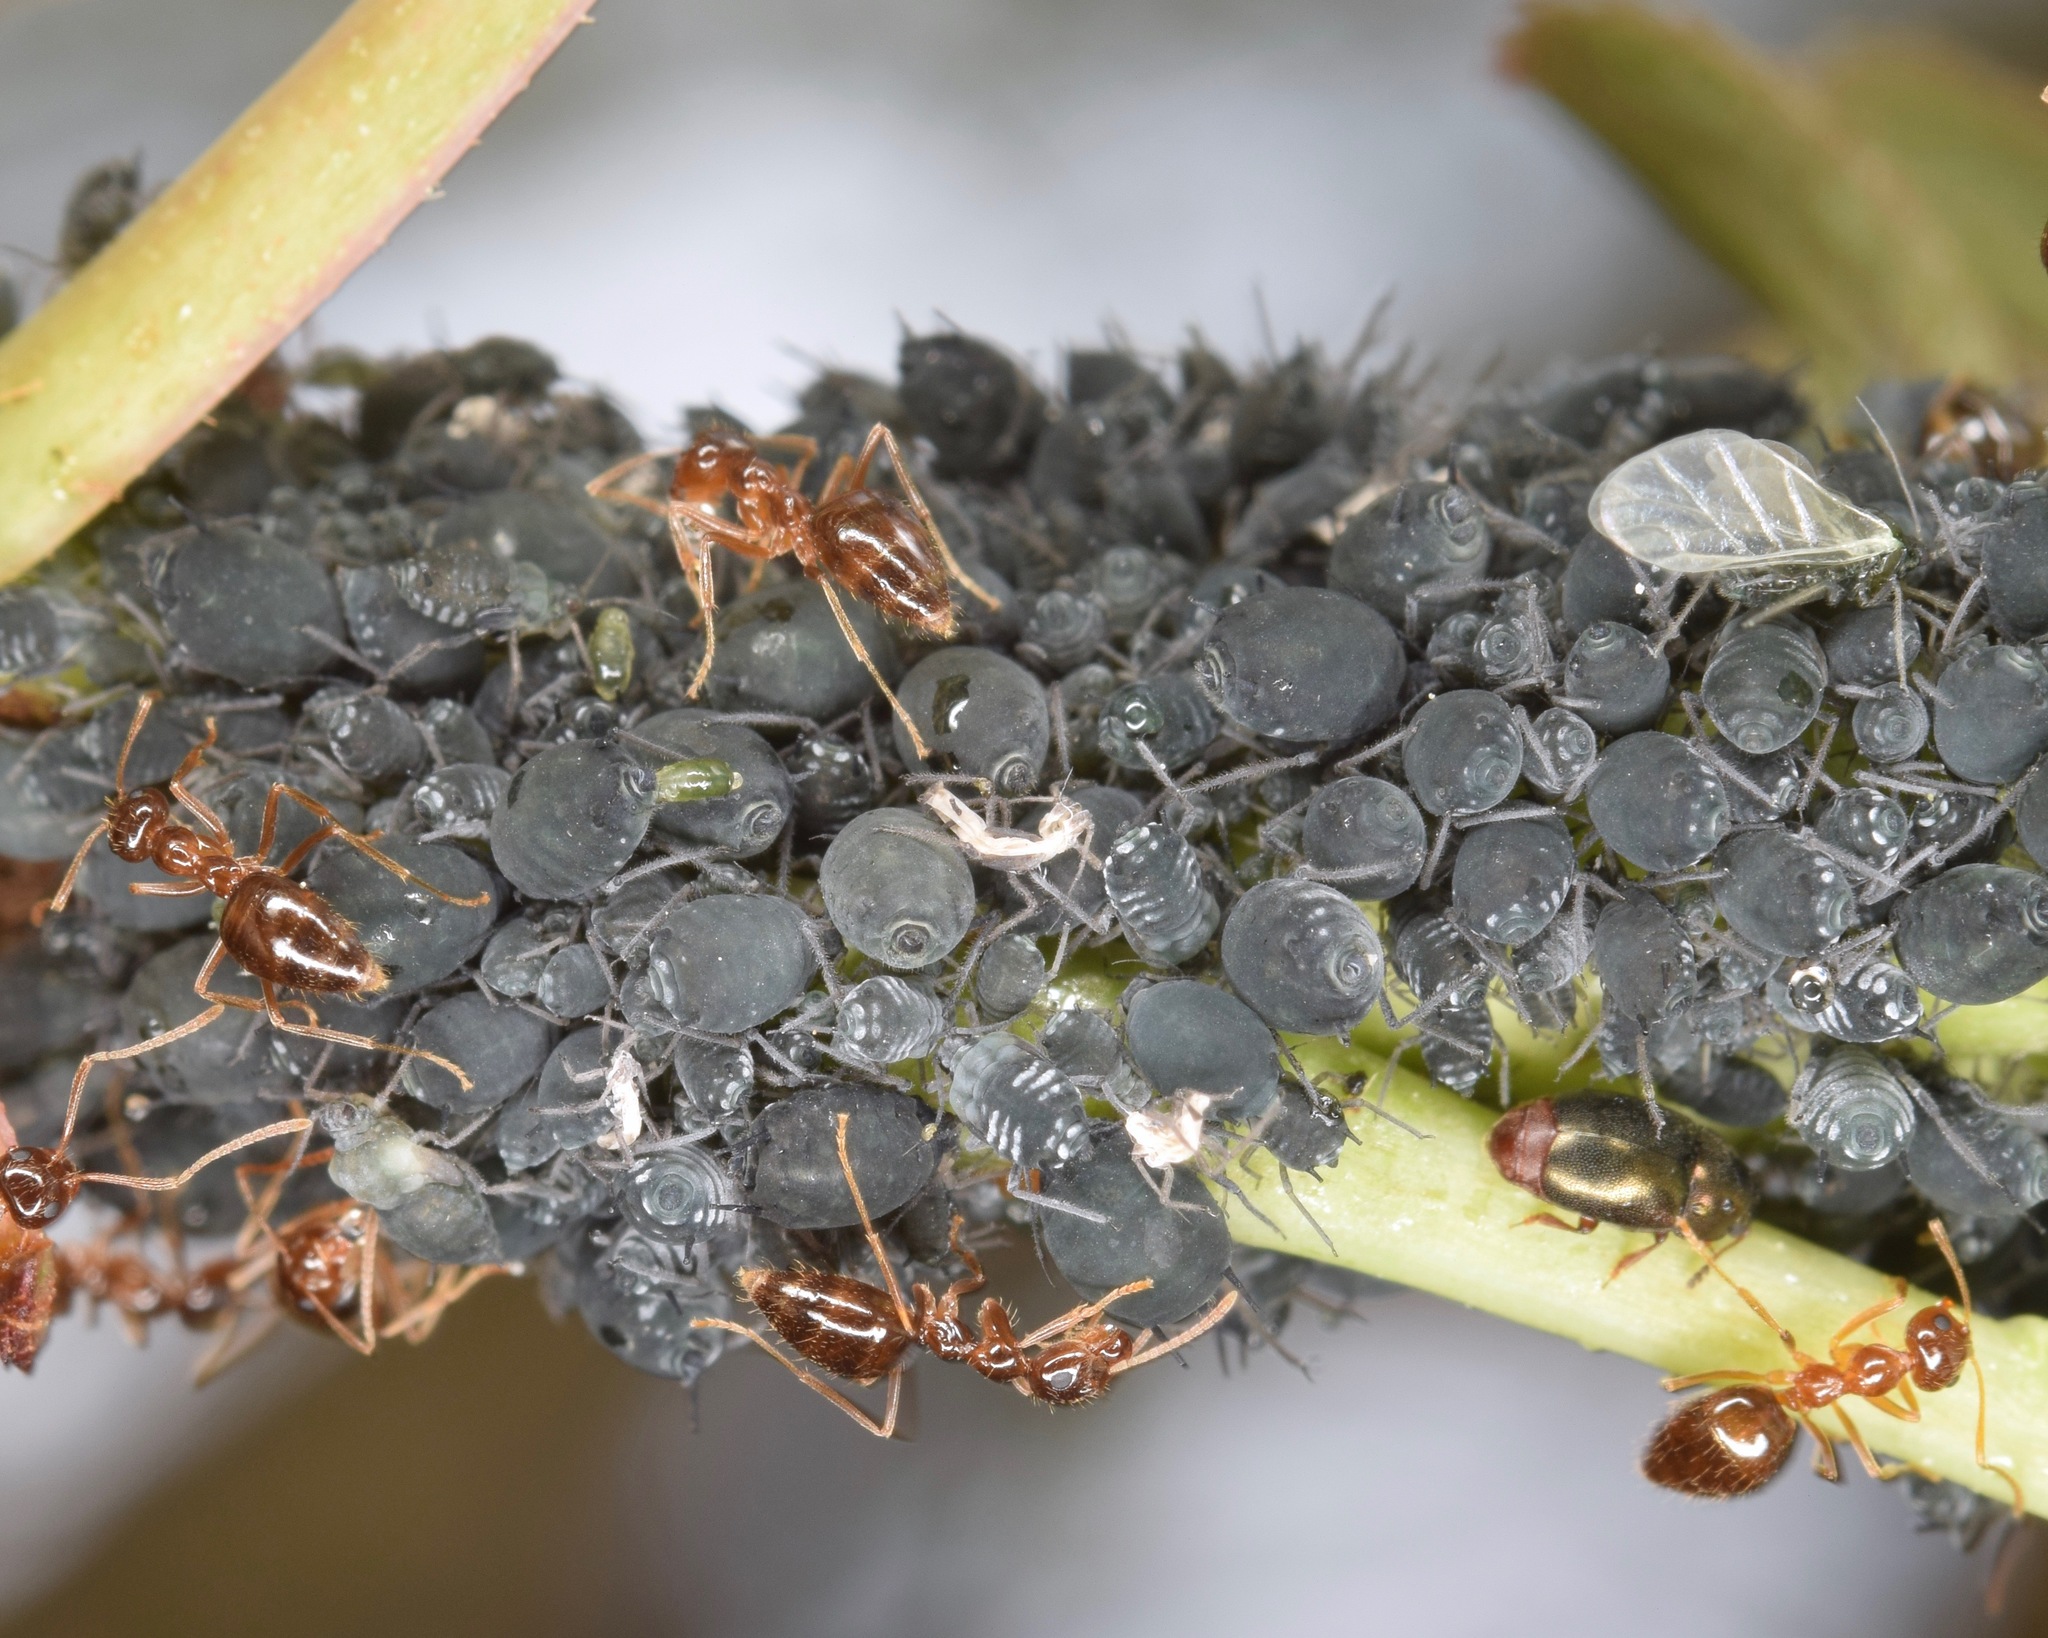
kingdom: Animalia
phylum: Arthropoda
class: Insecta
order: Hemiptera
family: Aphididae
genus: Aphis
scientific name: Aphis sambuci
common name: Elder aphid
